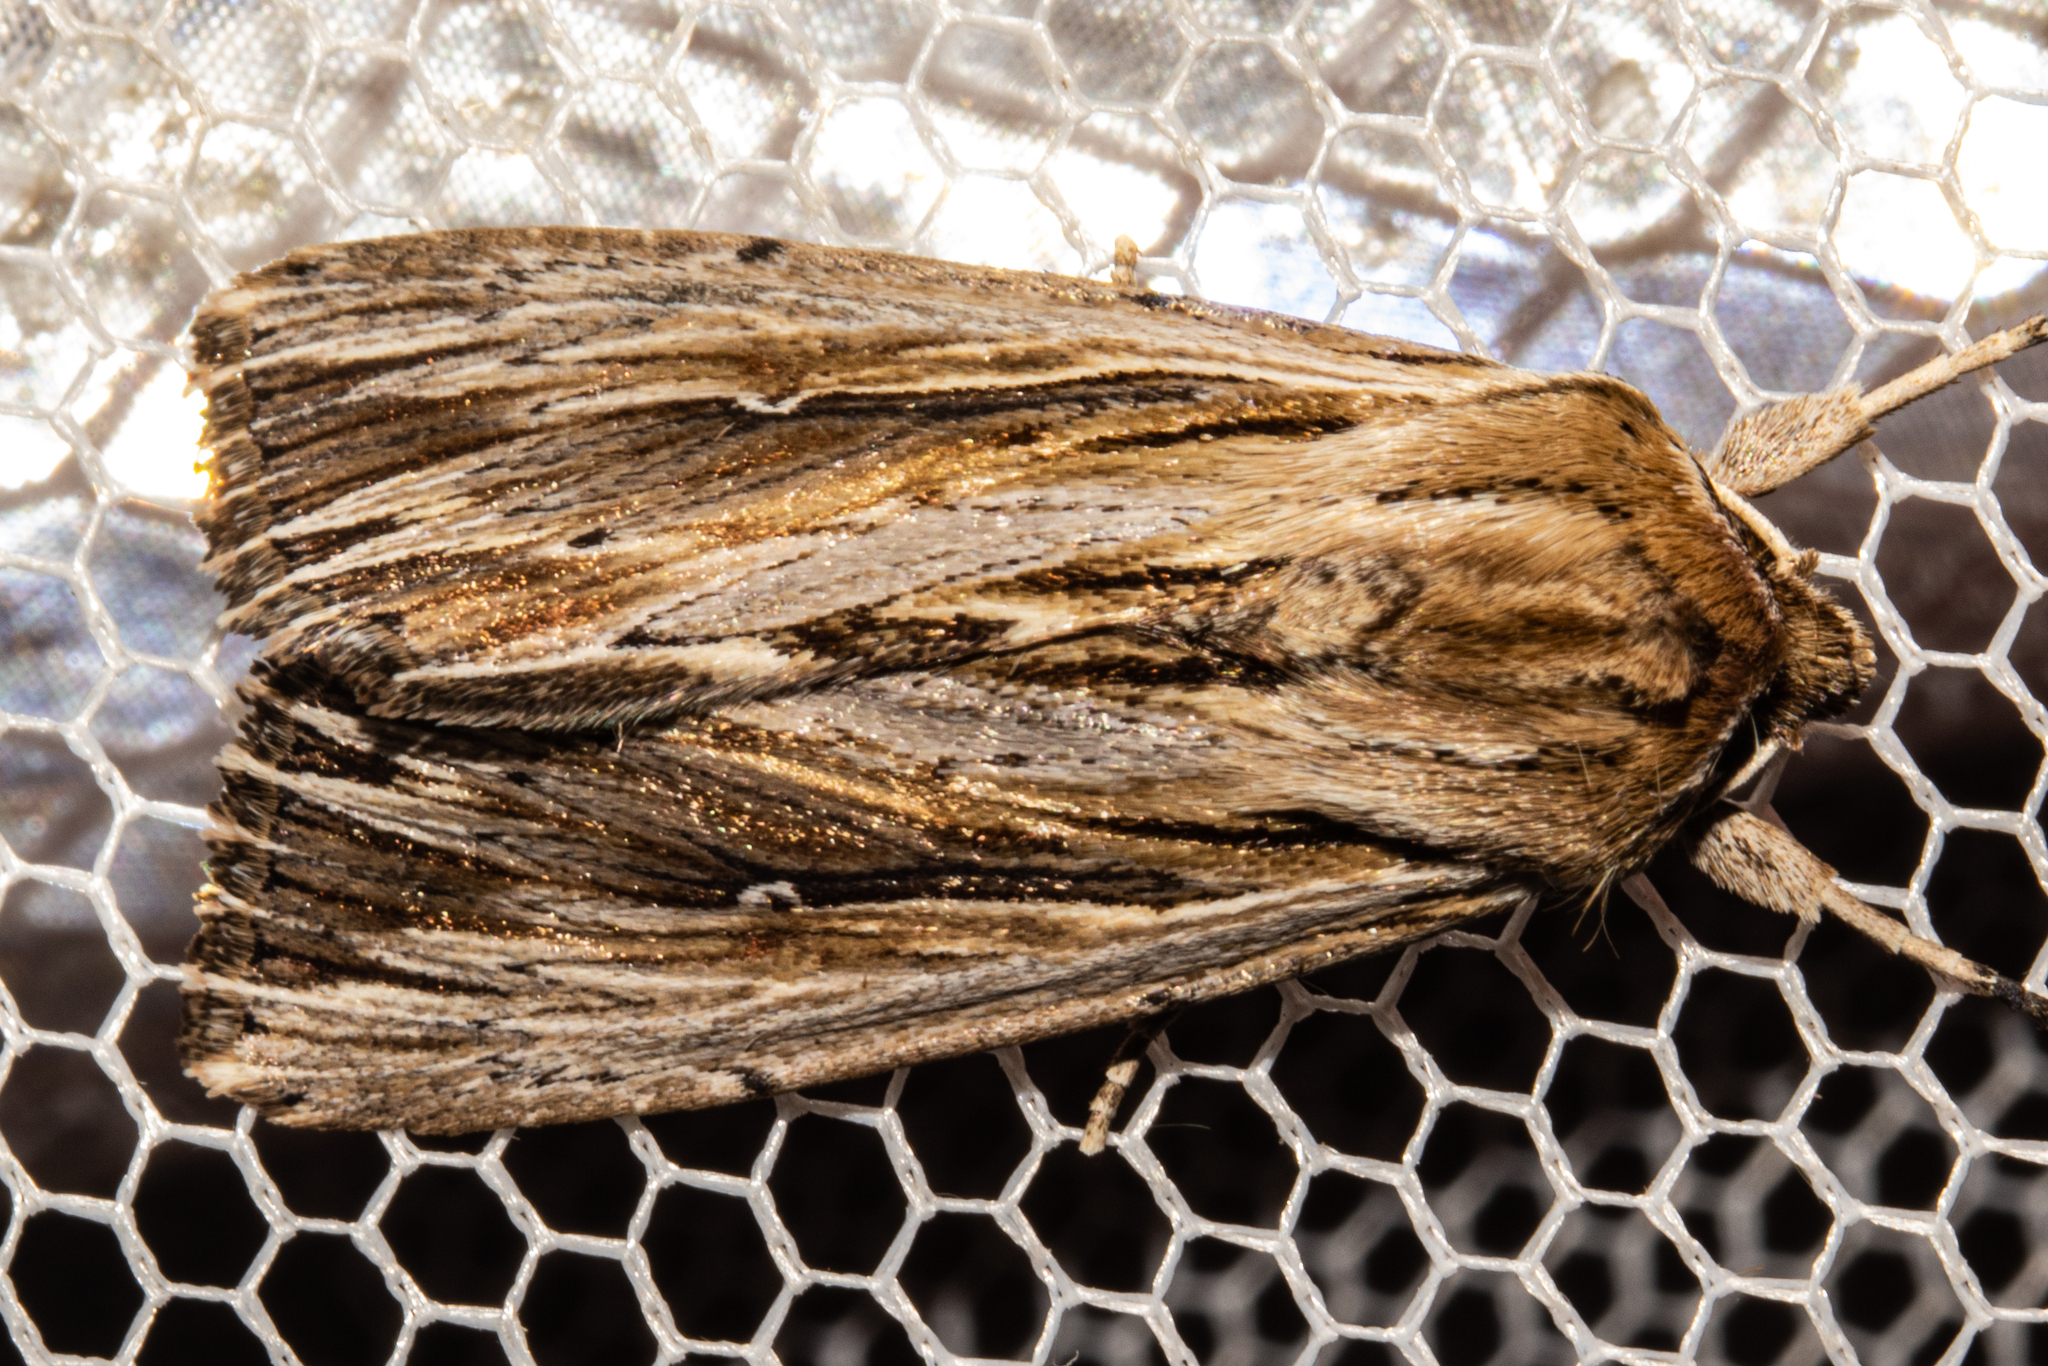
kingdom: Animalia
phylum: Arthropoda
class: Insecta
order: Lepidoptera
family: Noctuidae
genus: Persectania
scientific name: Persectania aversa
